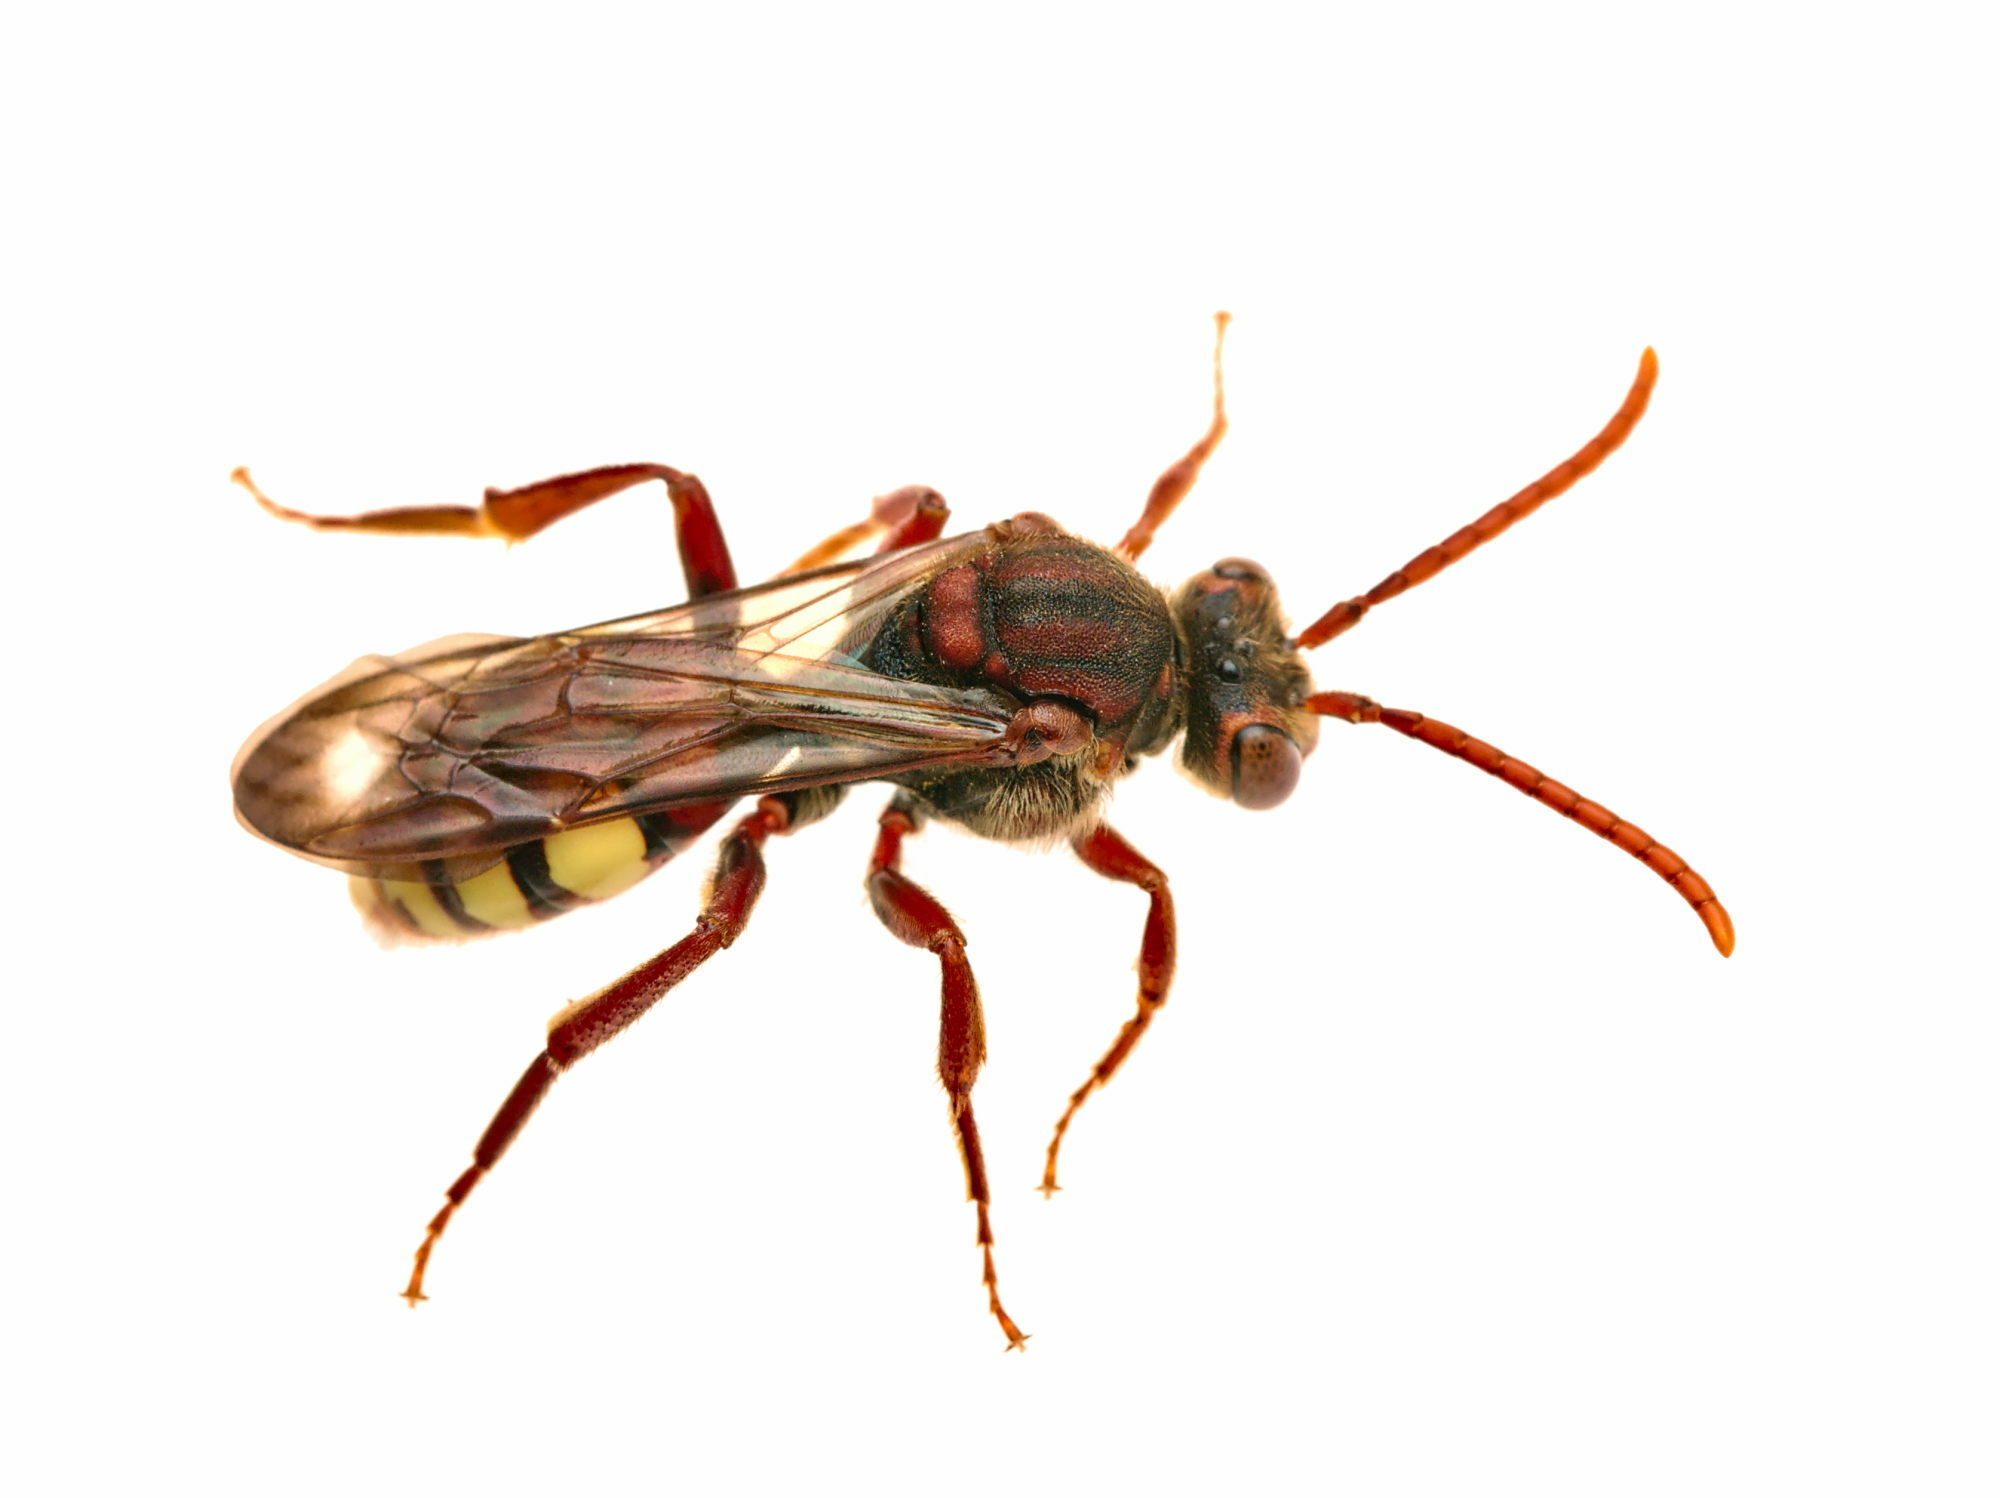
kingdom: Animalia
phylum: Arthropoda
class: Insecta
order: Hymenoptera
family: Apidae
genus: Nomada
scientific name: Nomada flava
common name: Flavous nomad bee
